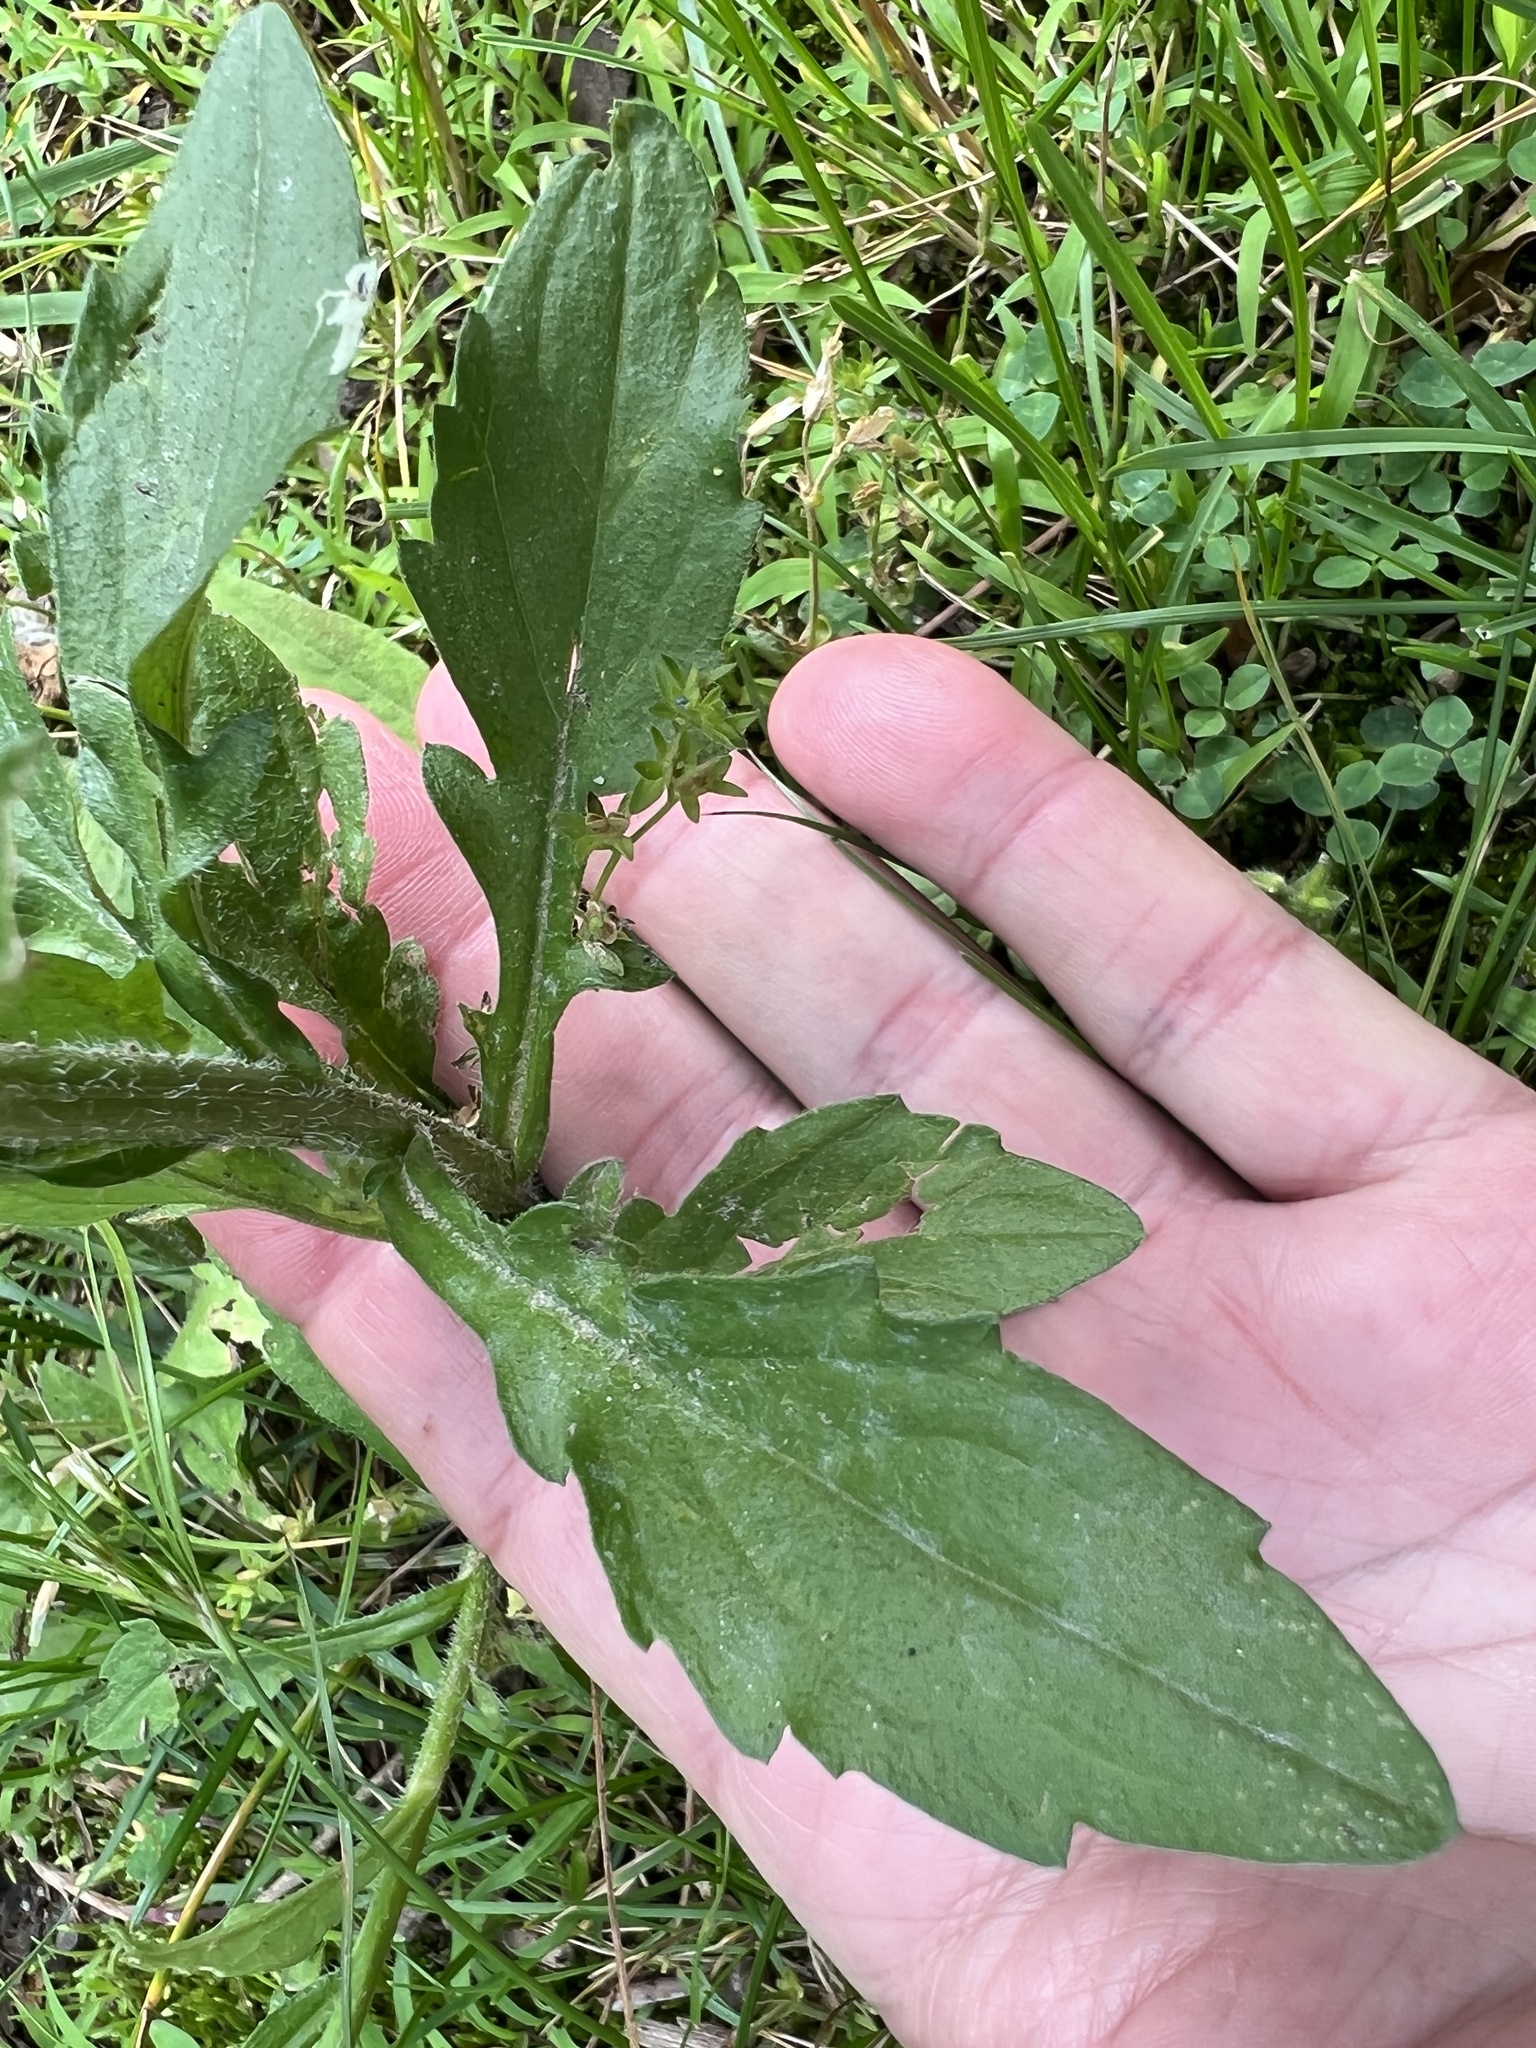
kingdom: Animalia
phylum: Arthropoda
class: Insecta
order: Diptera
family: Agromyzidae
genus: Calycomyza
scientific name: Calycomyza humeralis
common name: Aster leafminer
